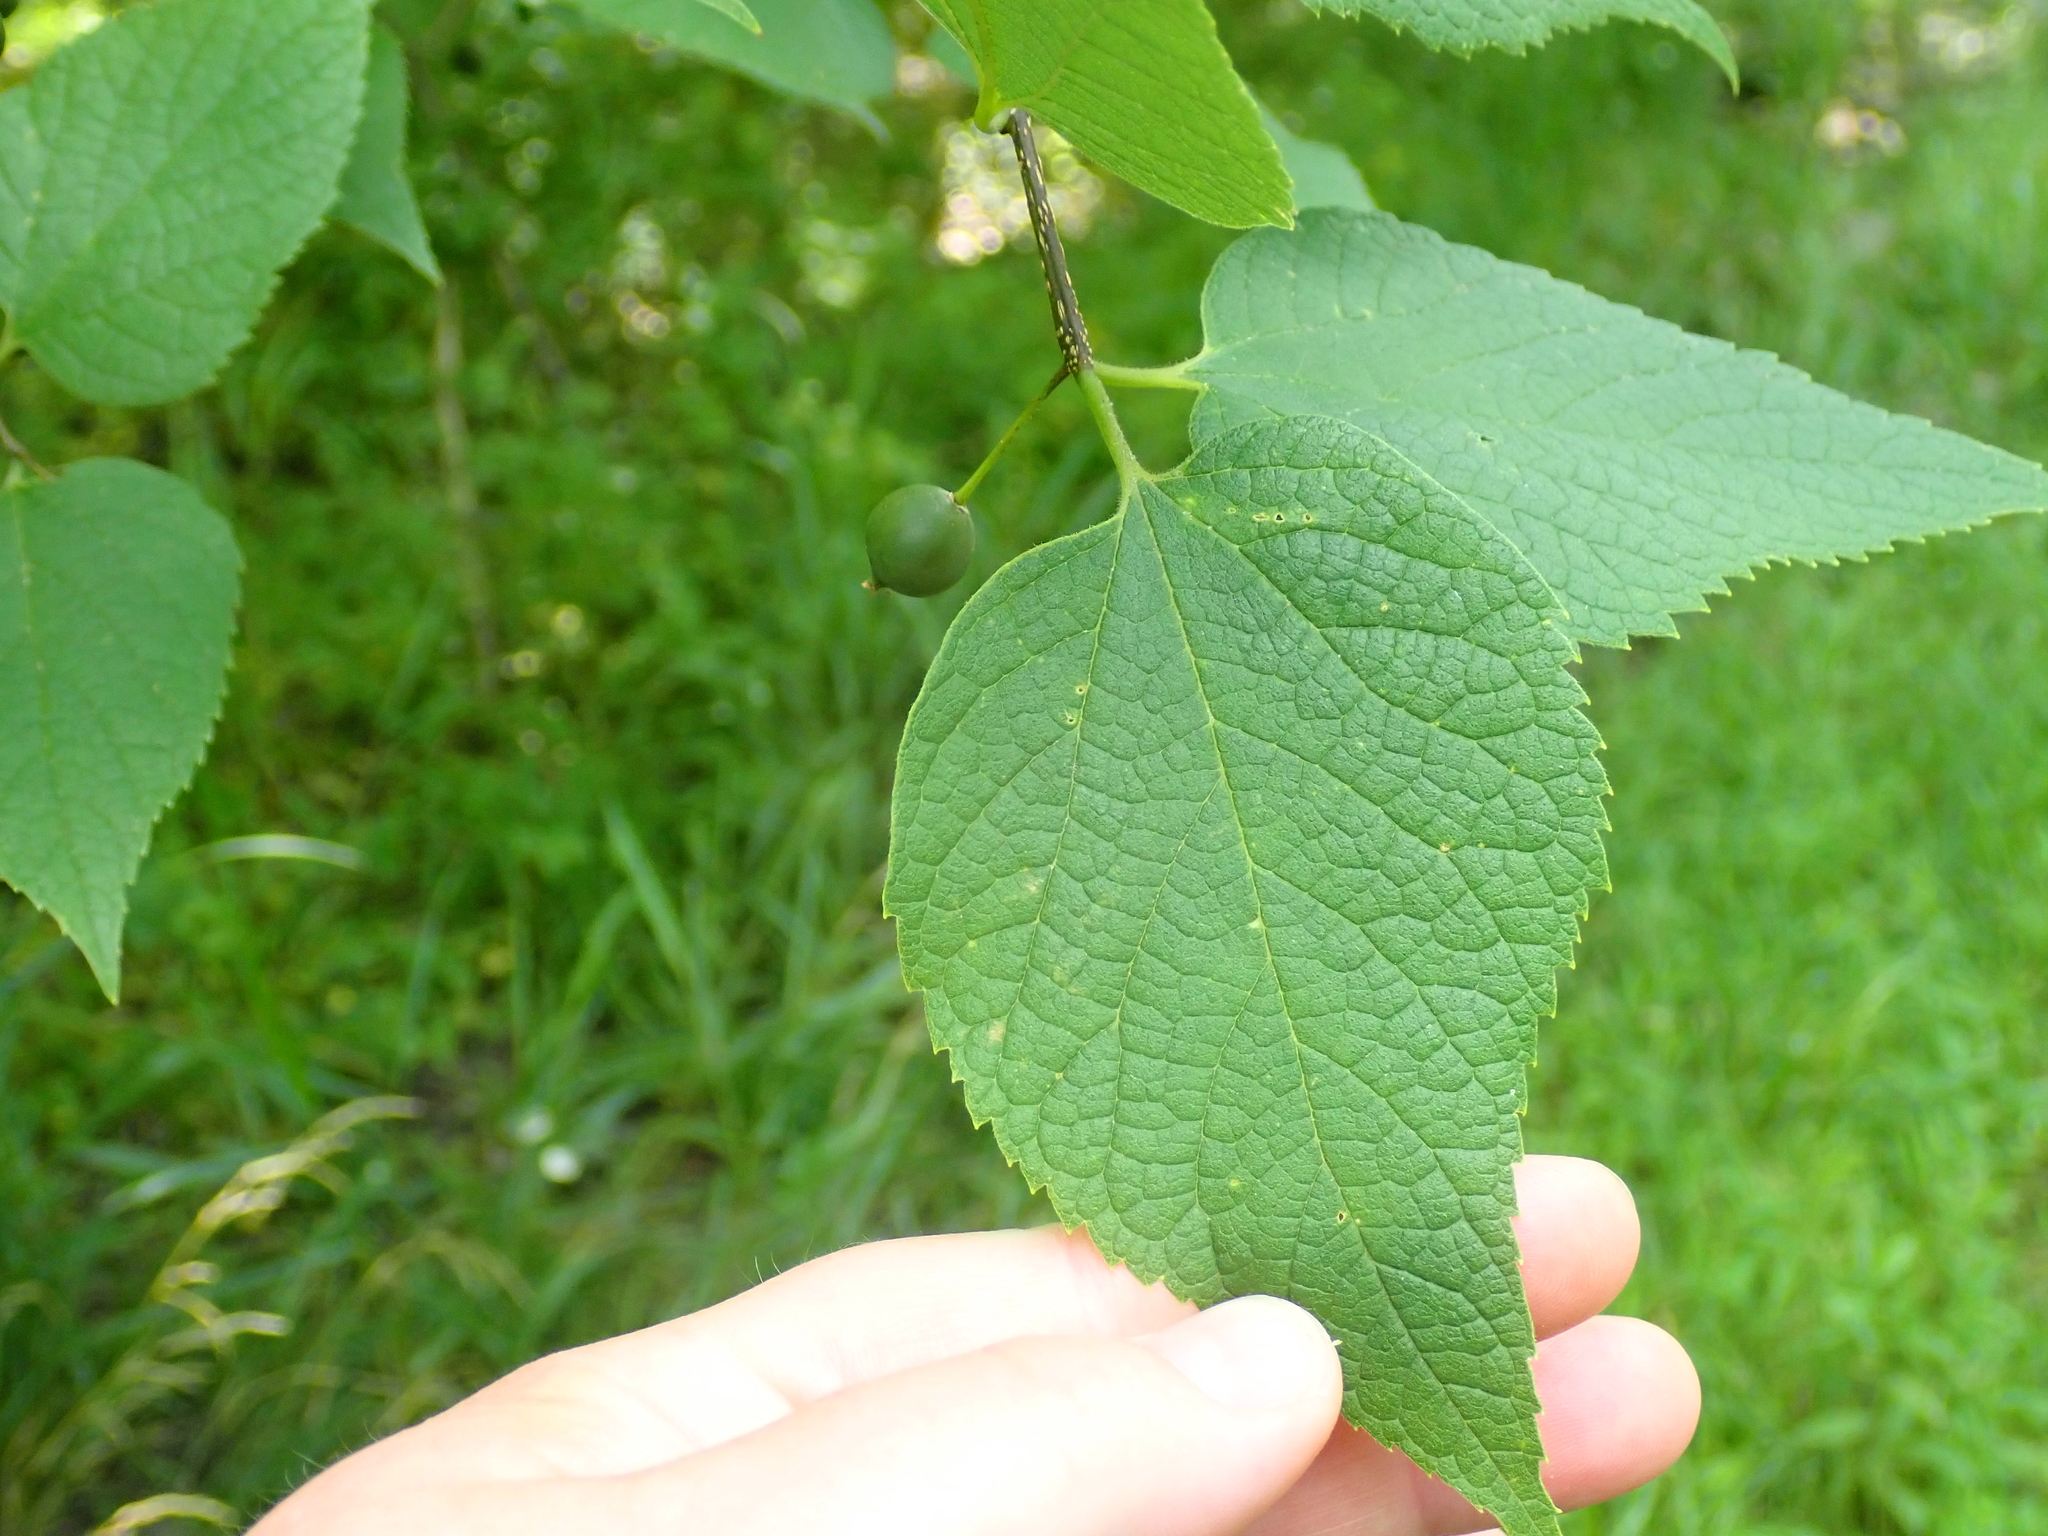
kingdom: Plantae
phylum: Tracheophyta
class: Magnoliopsida
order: Rosales
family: Cannabaceae
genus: Celtis
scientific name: Celtis occidentalis
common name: Common hackberry
